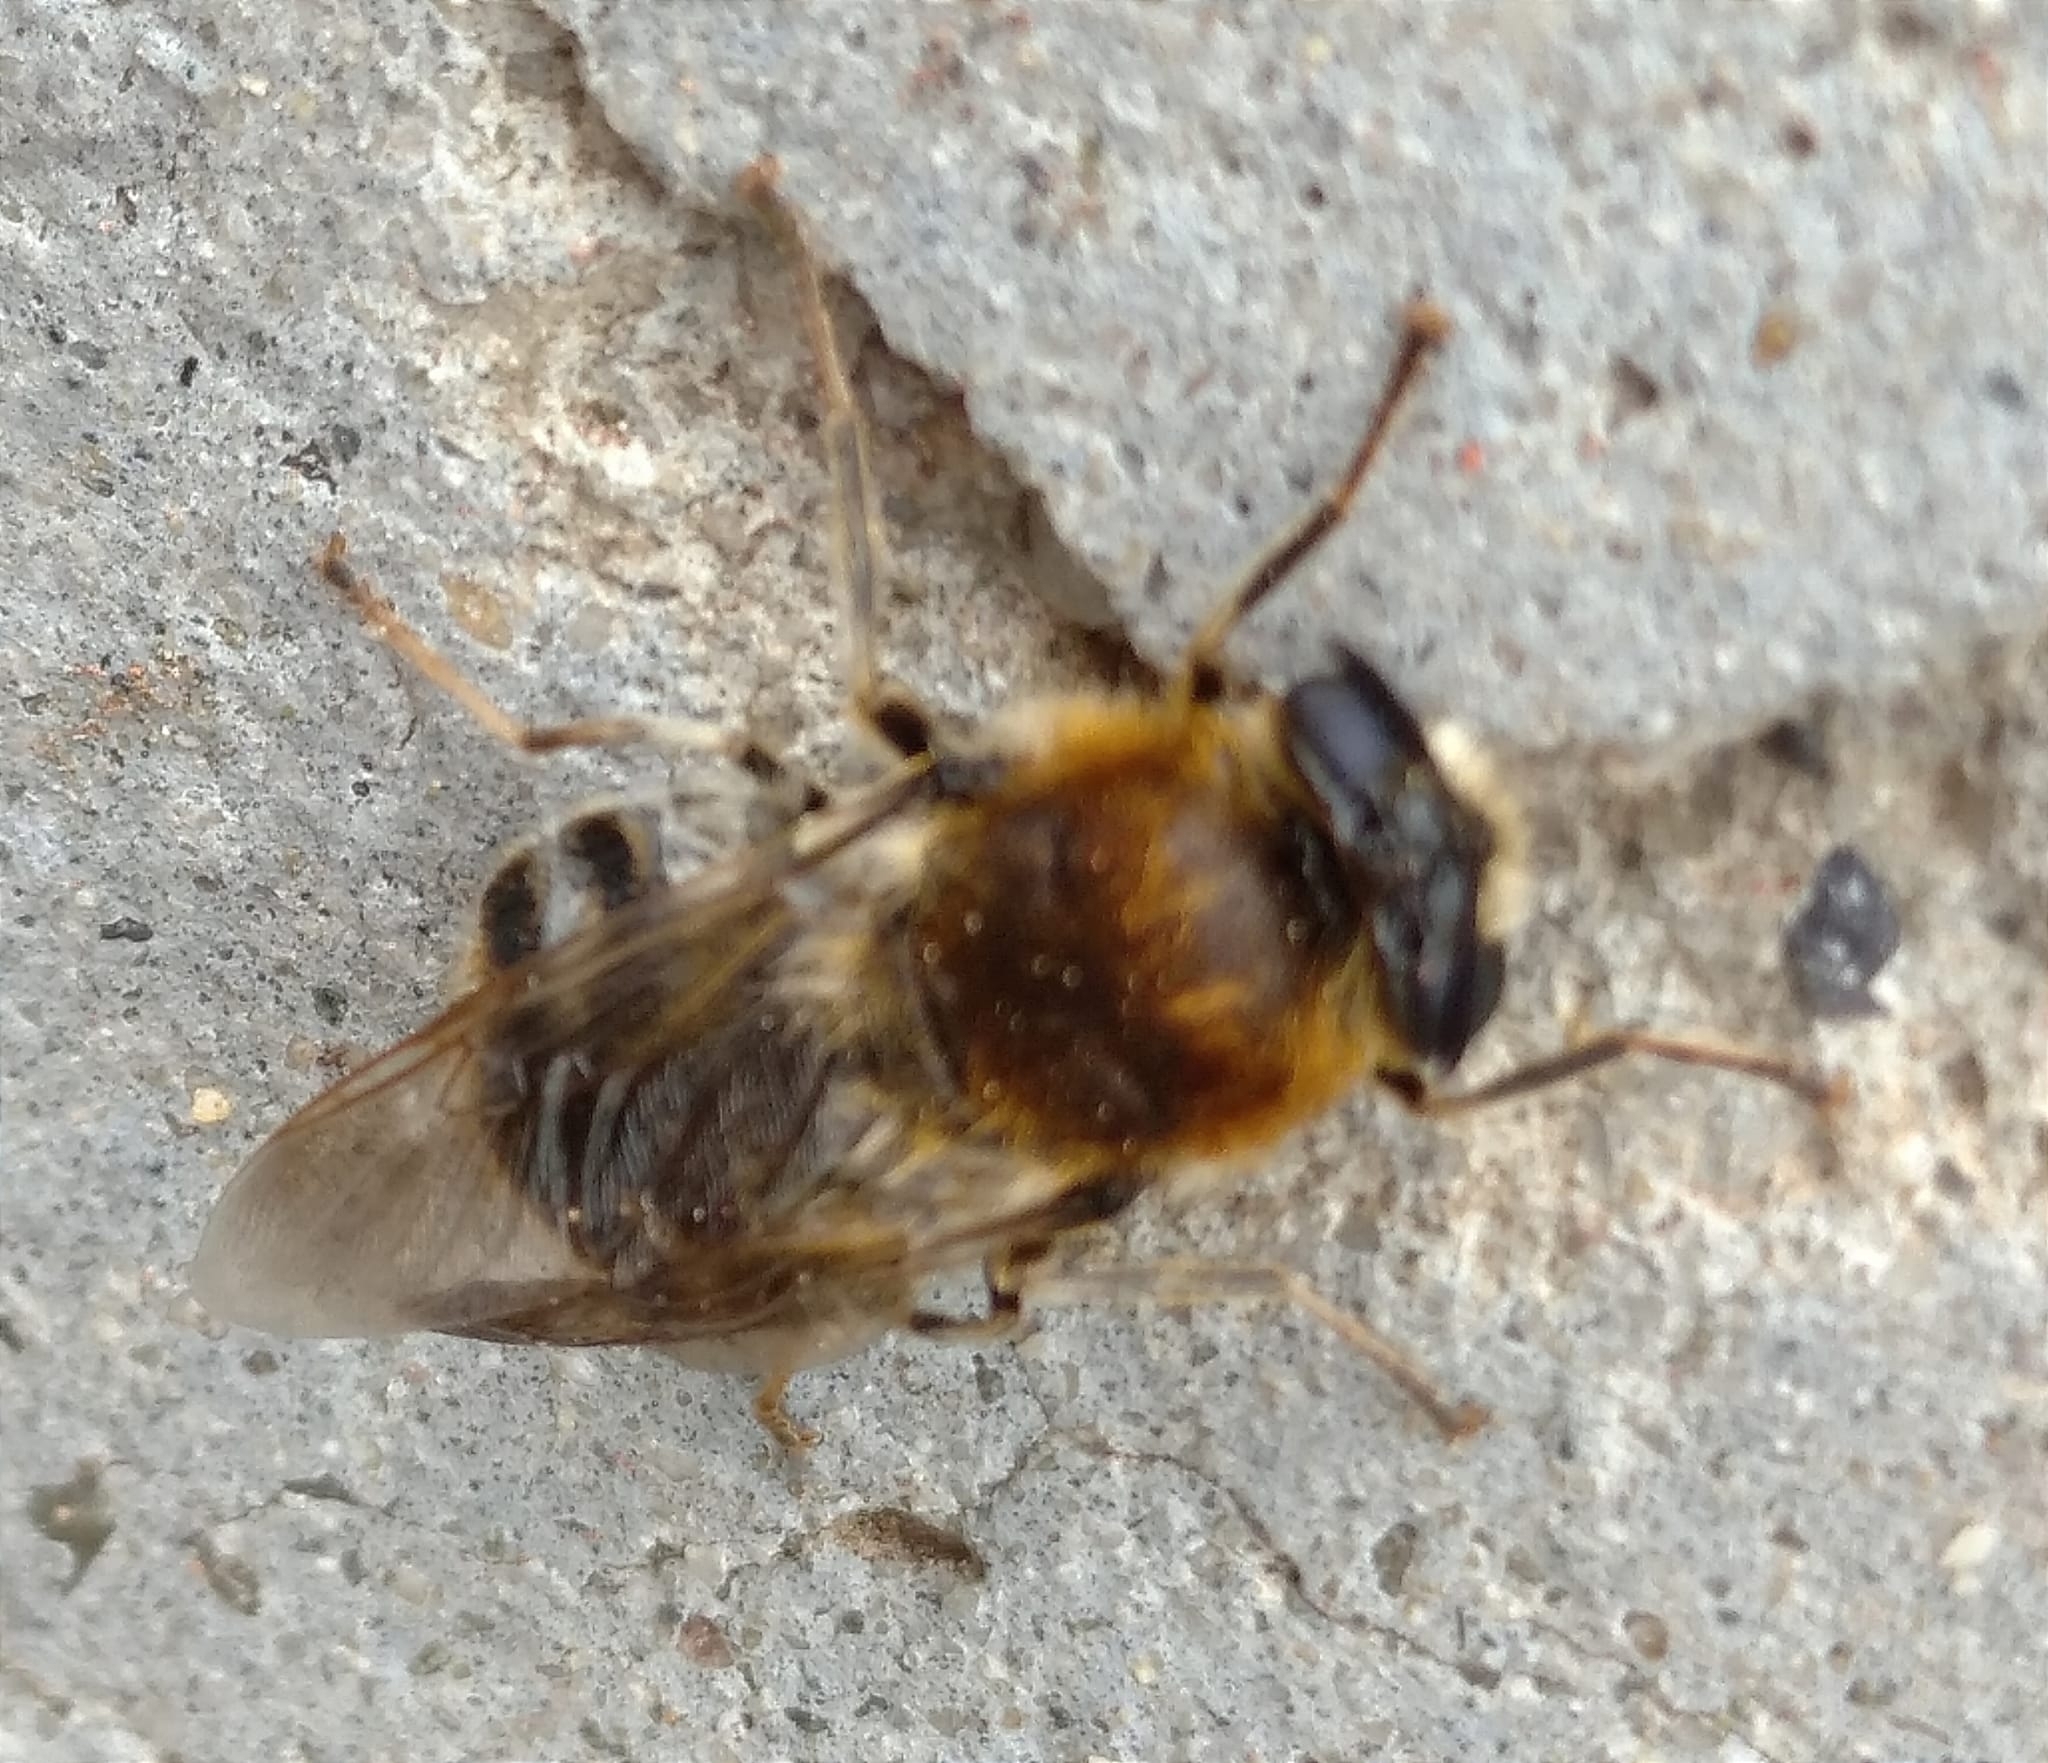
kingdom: Animalia
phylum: Arthropoda
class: Insecta
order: Diptera
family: Stratiomyidae
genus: Stratiomys
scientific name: Stratiomys longicornis
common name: Long-horned general
